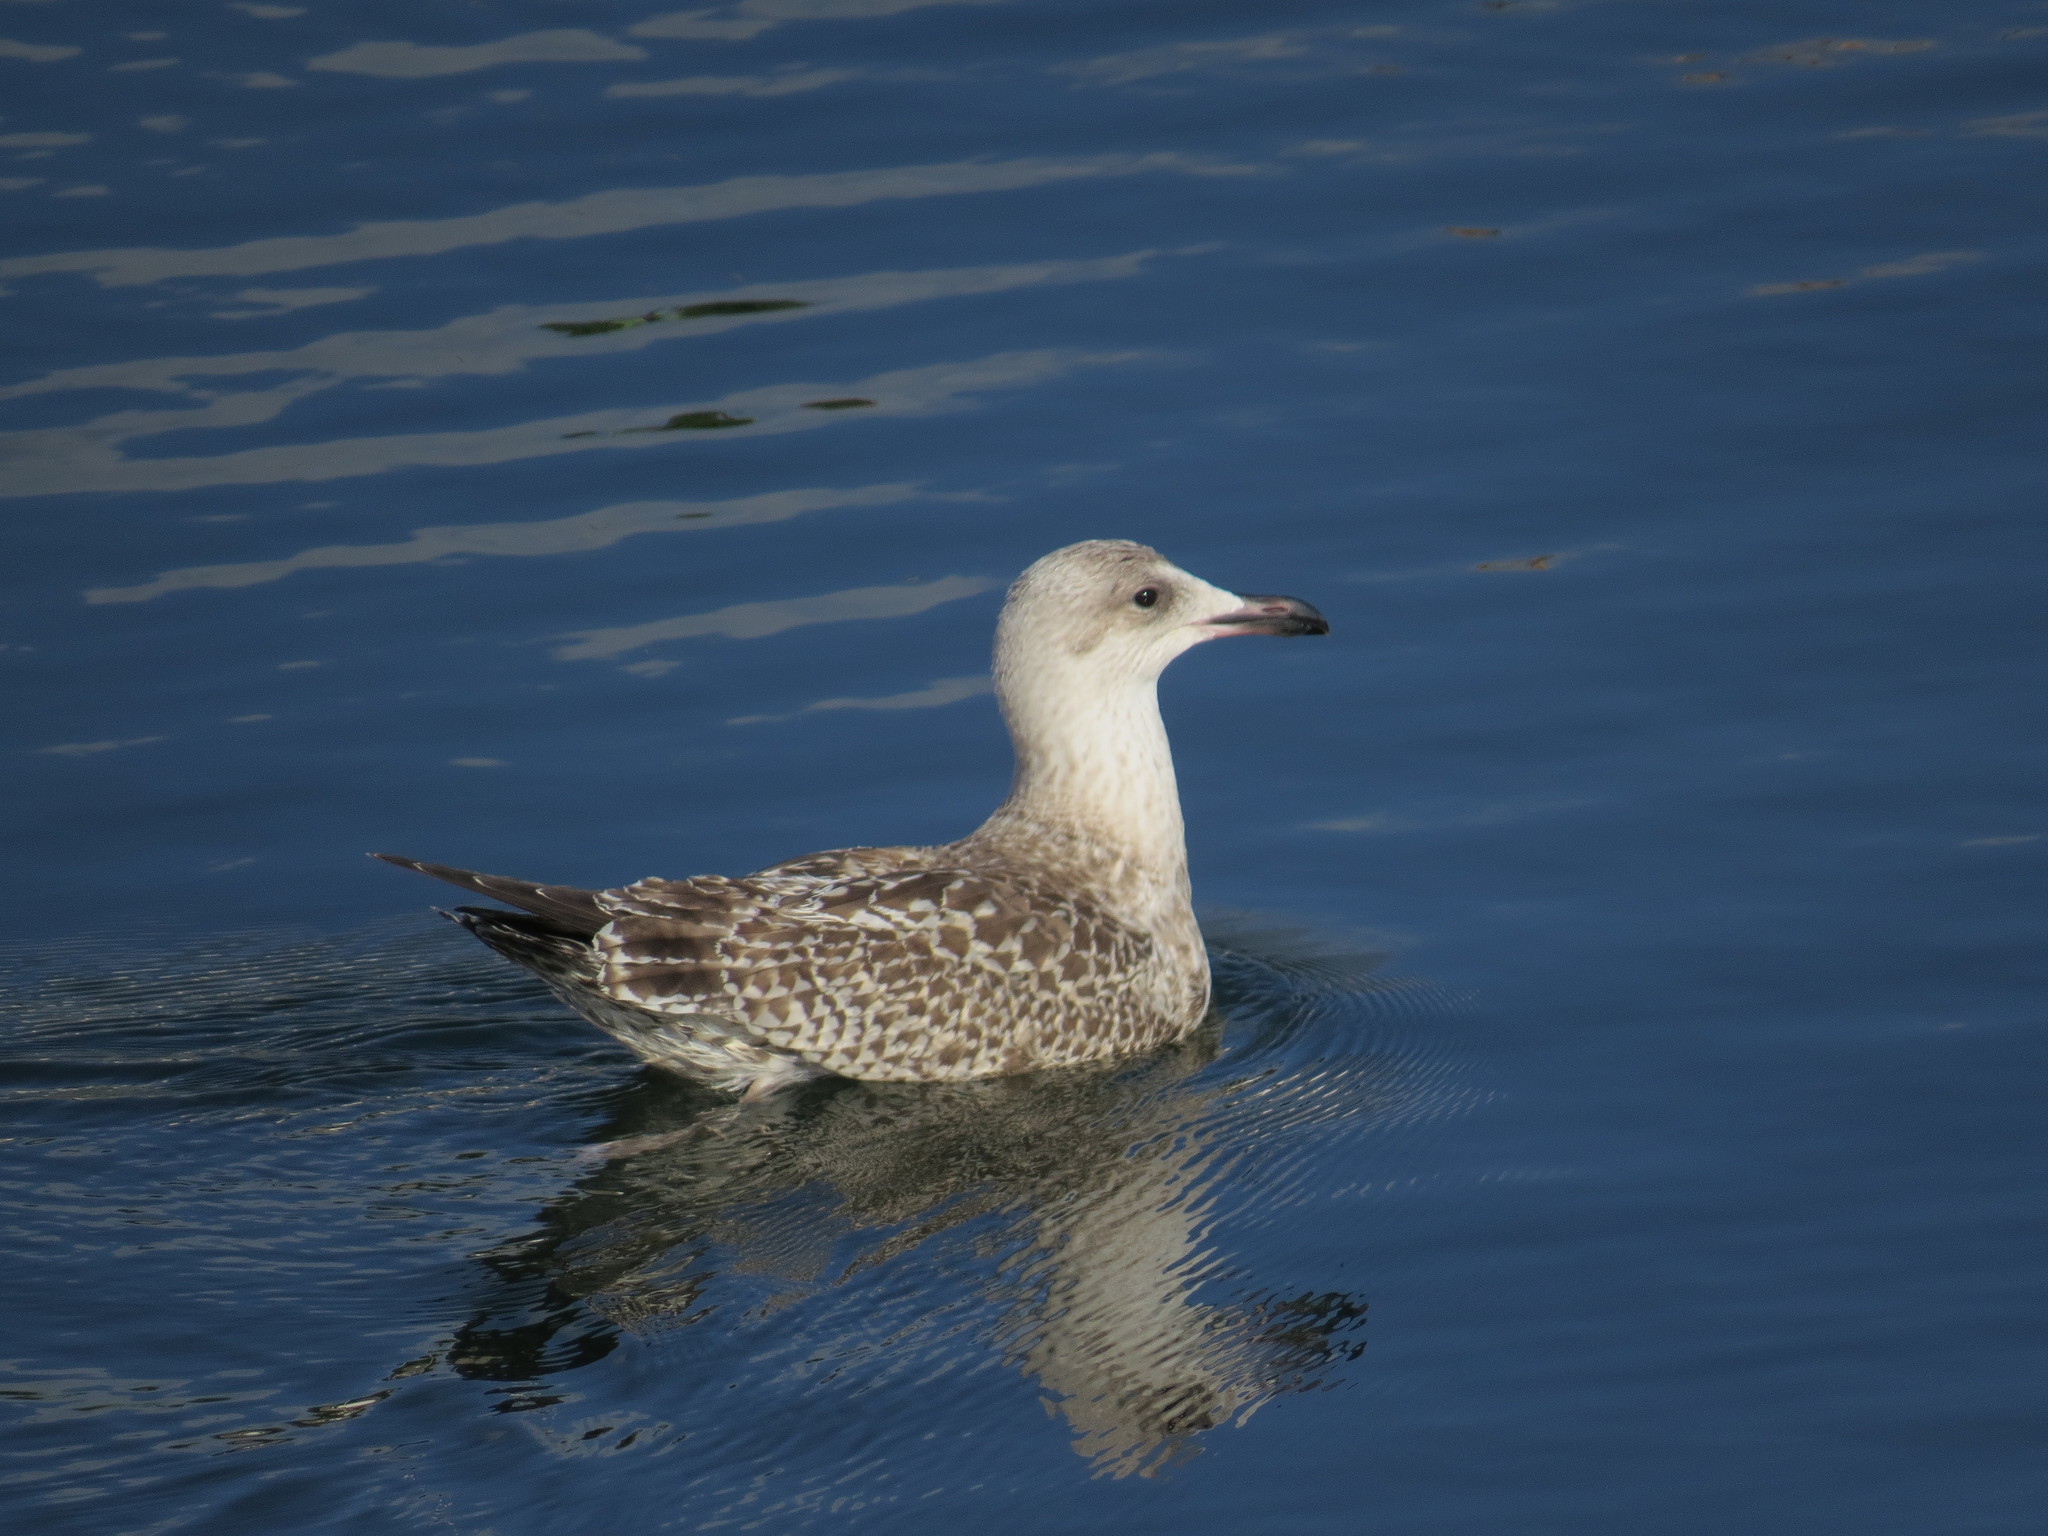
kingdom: Animalia
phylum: Chordata
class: Aves
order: Charadriiformes
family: Laridae
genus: Larus
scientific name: Larus argentatus
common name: Herring gull
